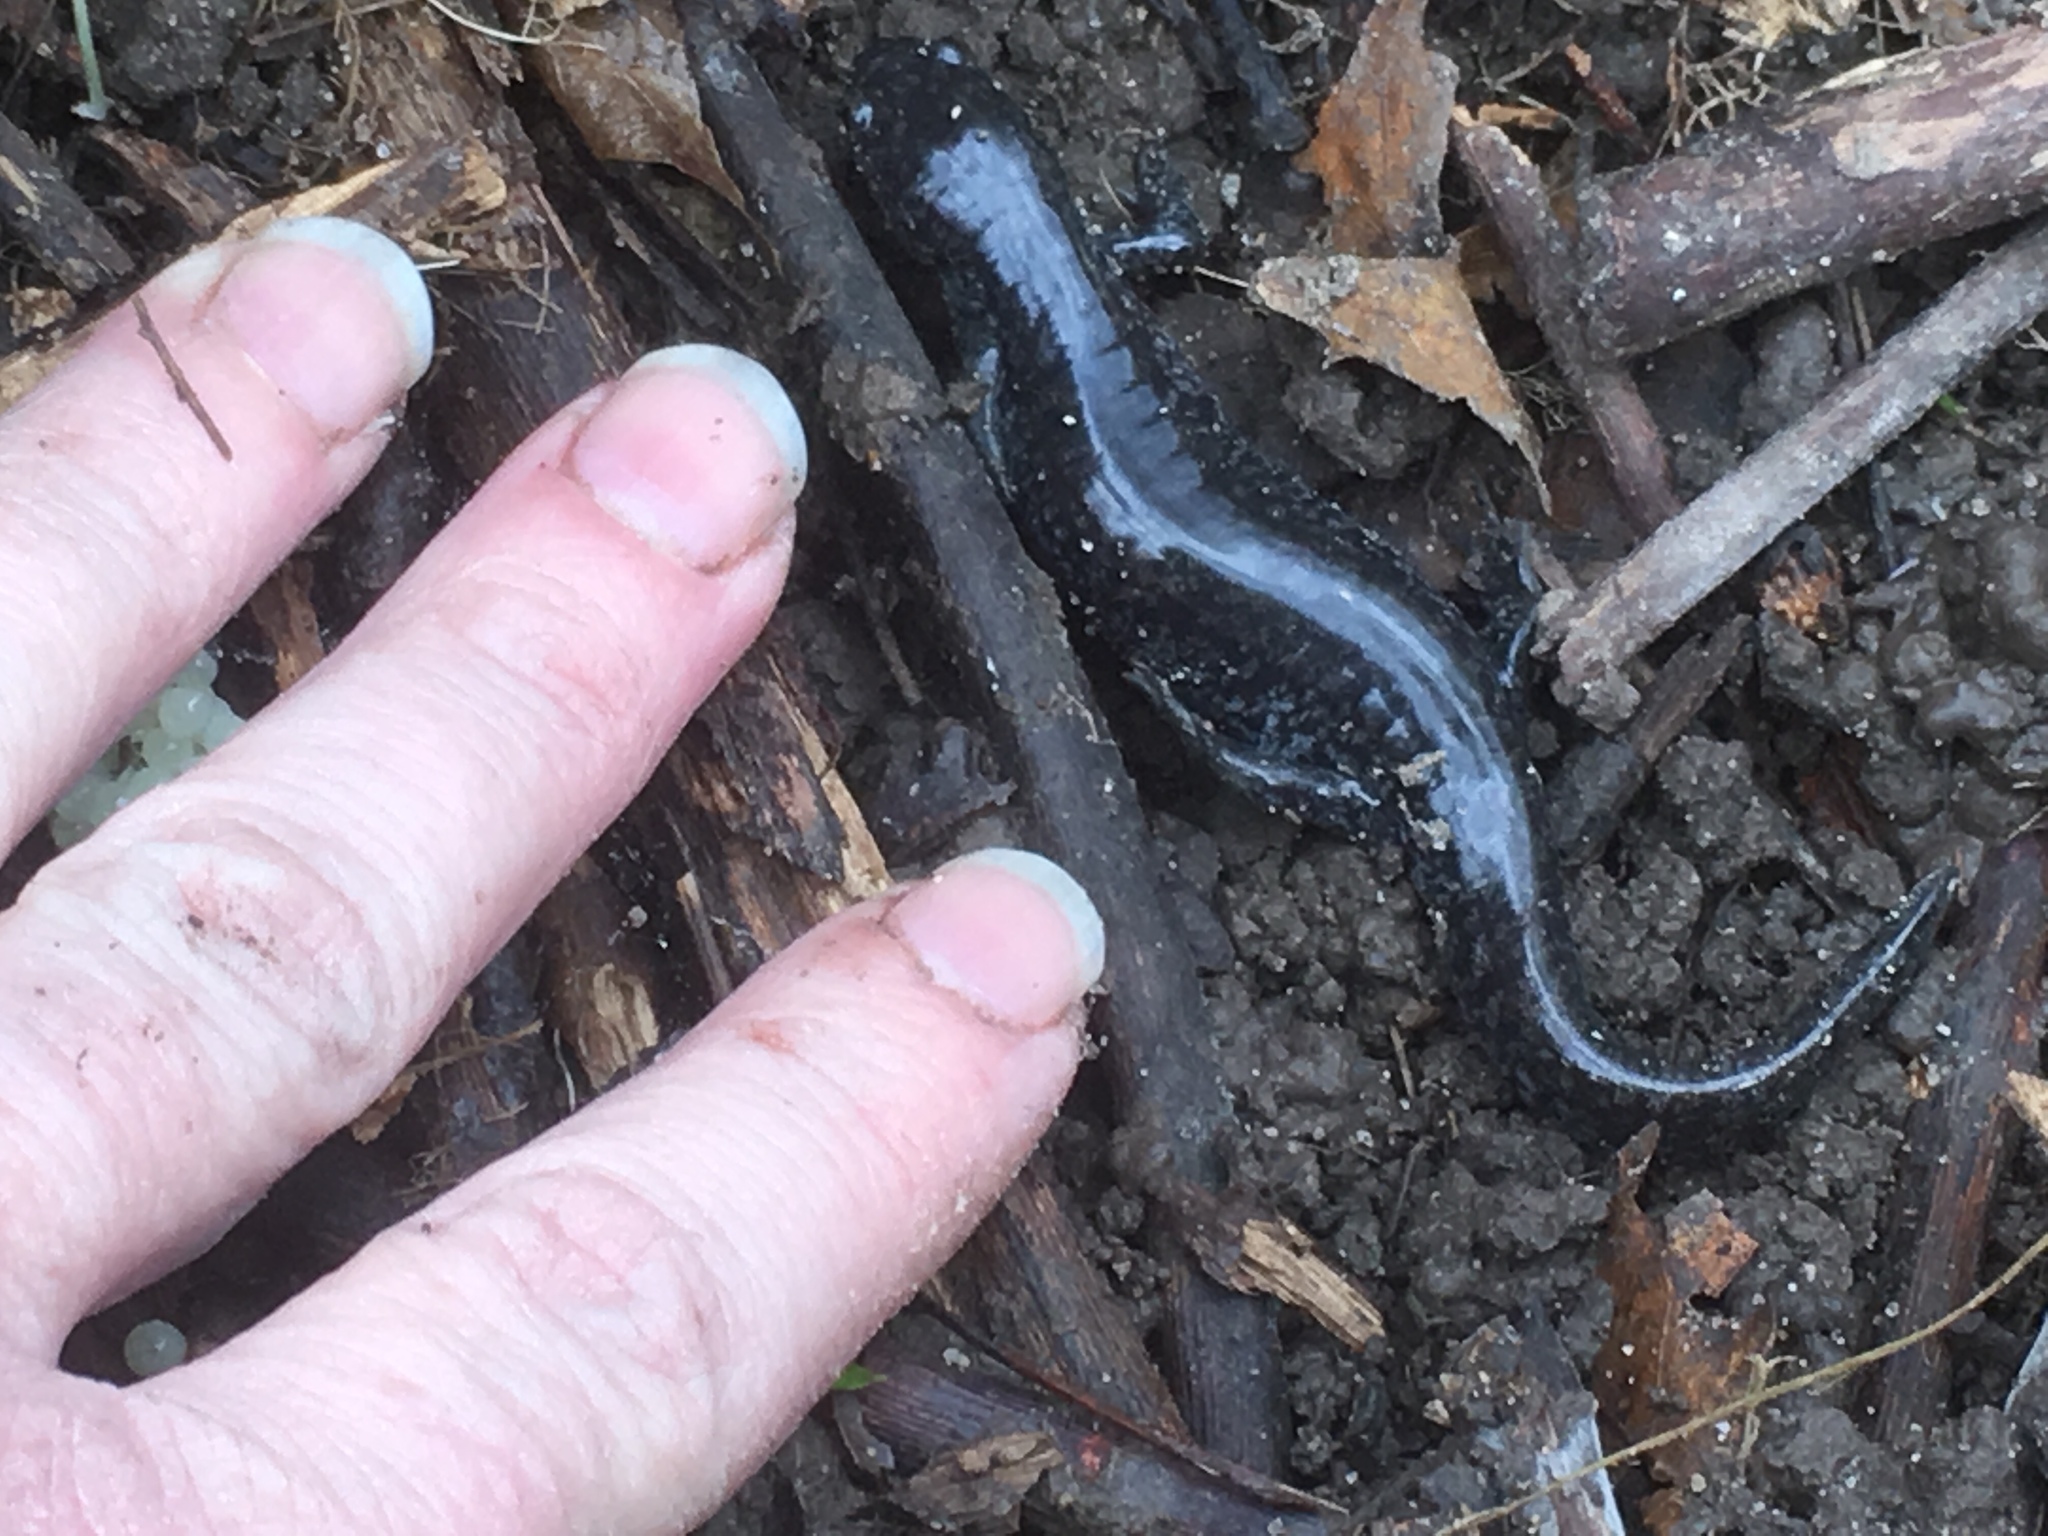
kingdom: Animalia
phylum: Chordata
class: Amphibia
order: Caudata
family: Ambystomatidae
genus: Ambystoma
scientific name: Ambystoma texanum
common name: Small-mouth salamander
